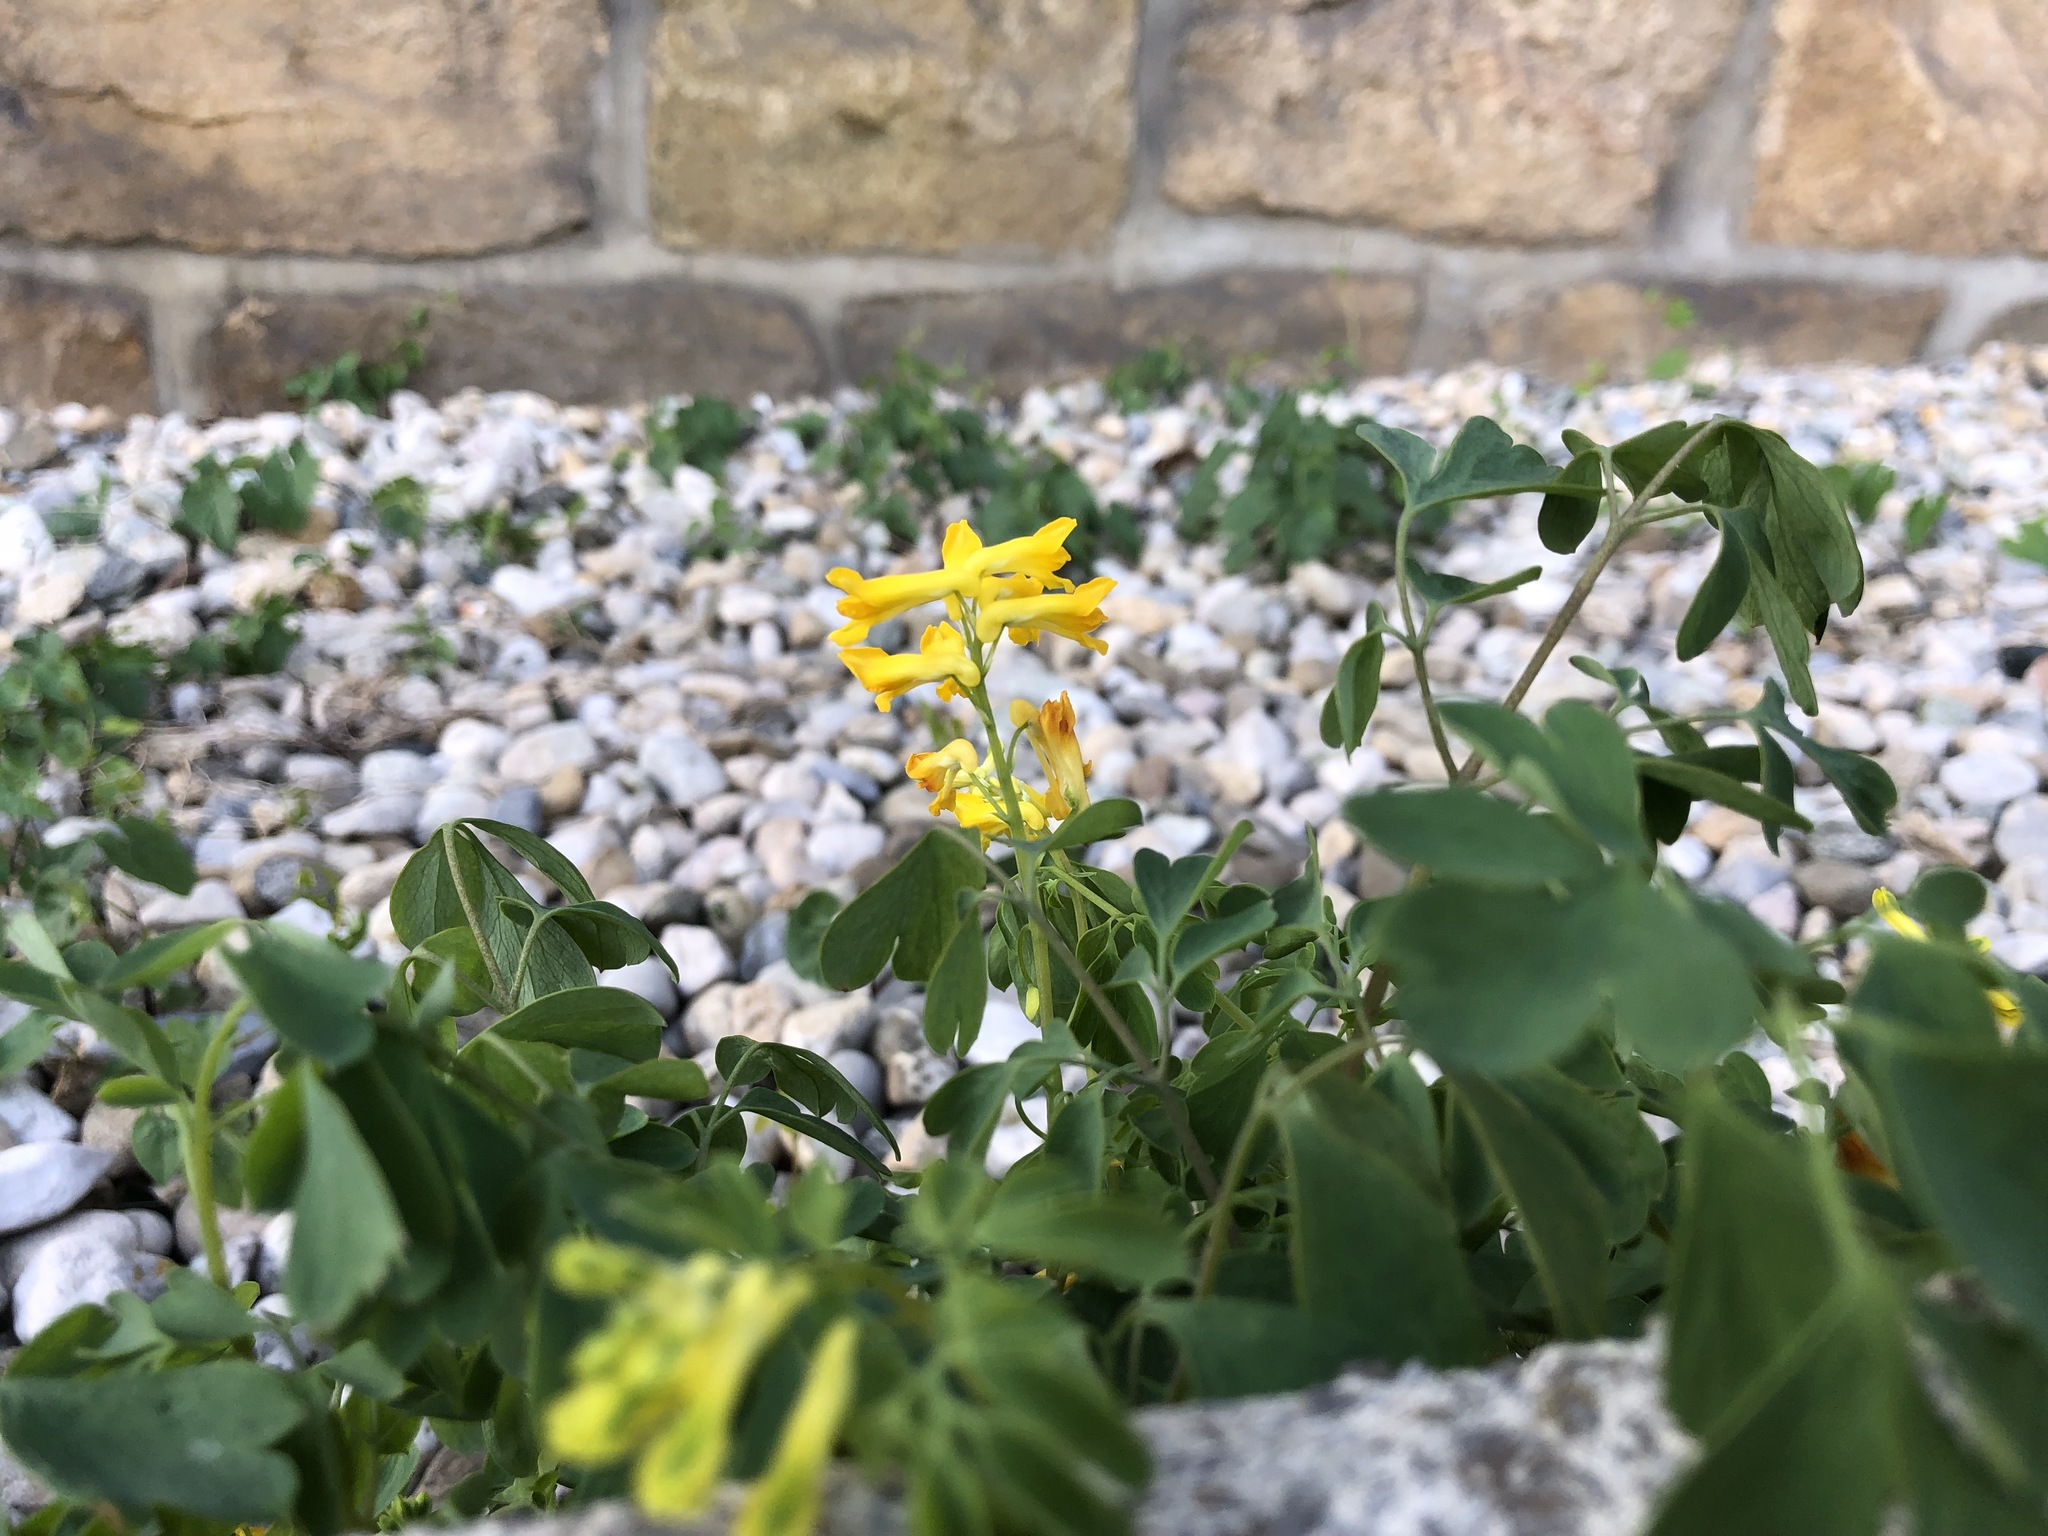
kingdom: Plantae
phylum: Tracheophyta
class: Magnoliopsida
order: Ranunculales
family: Papaveraceae
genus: Pseudofumaria
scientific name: Pseudofumaria lutea
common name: Yellow corydalis
